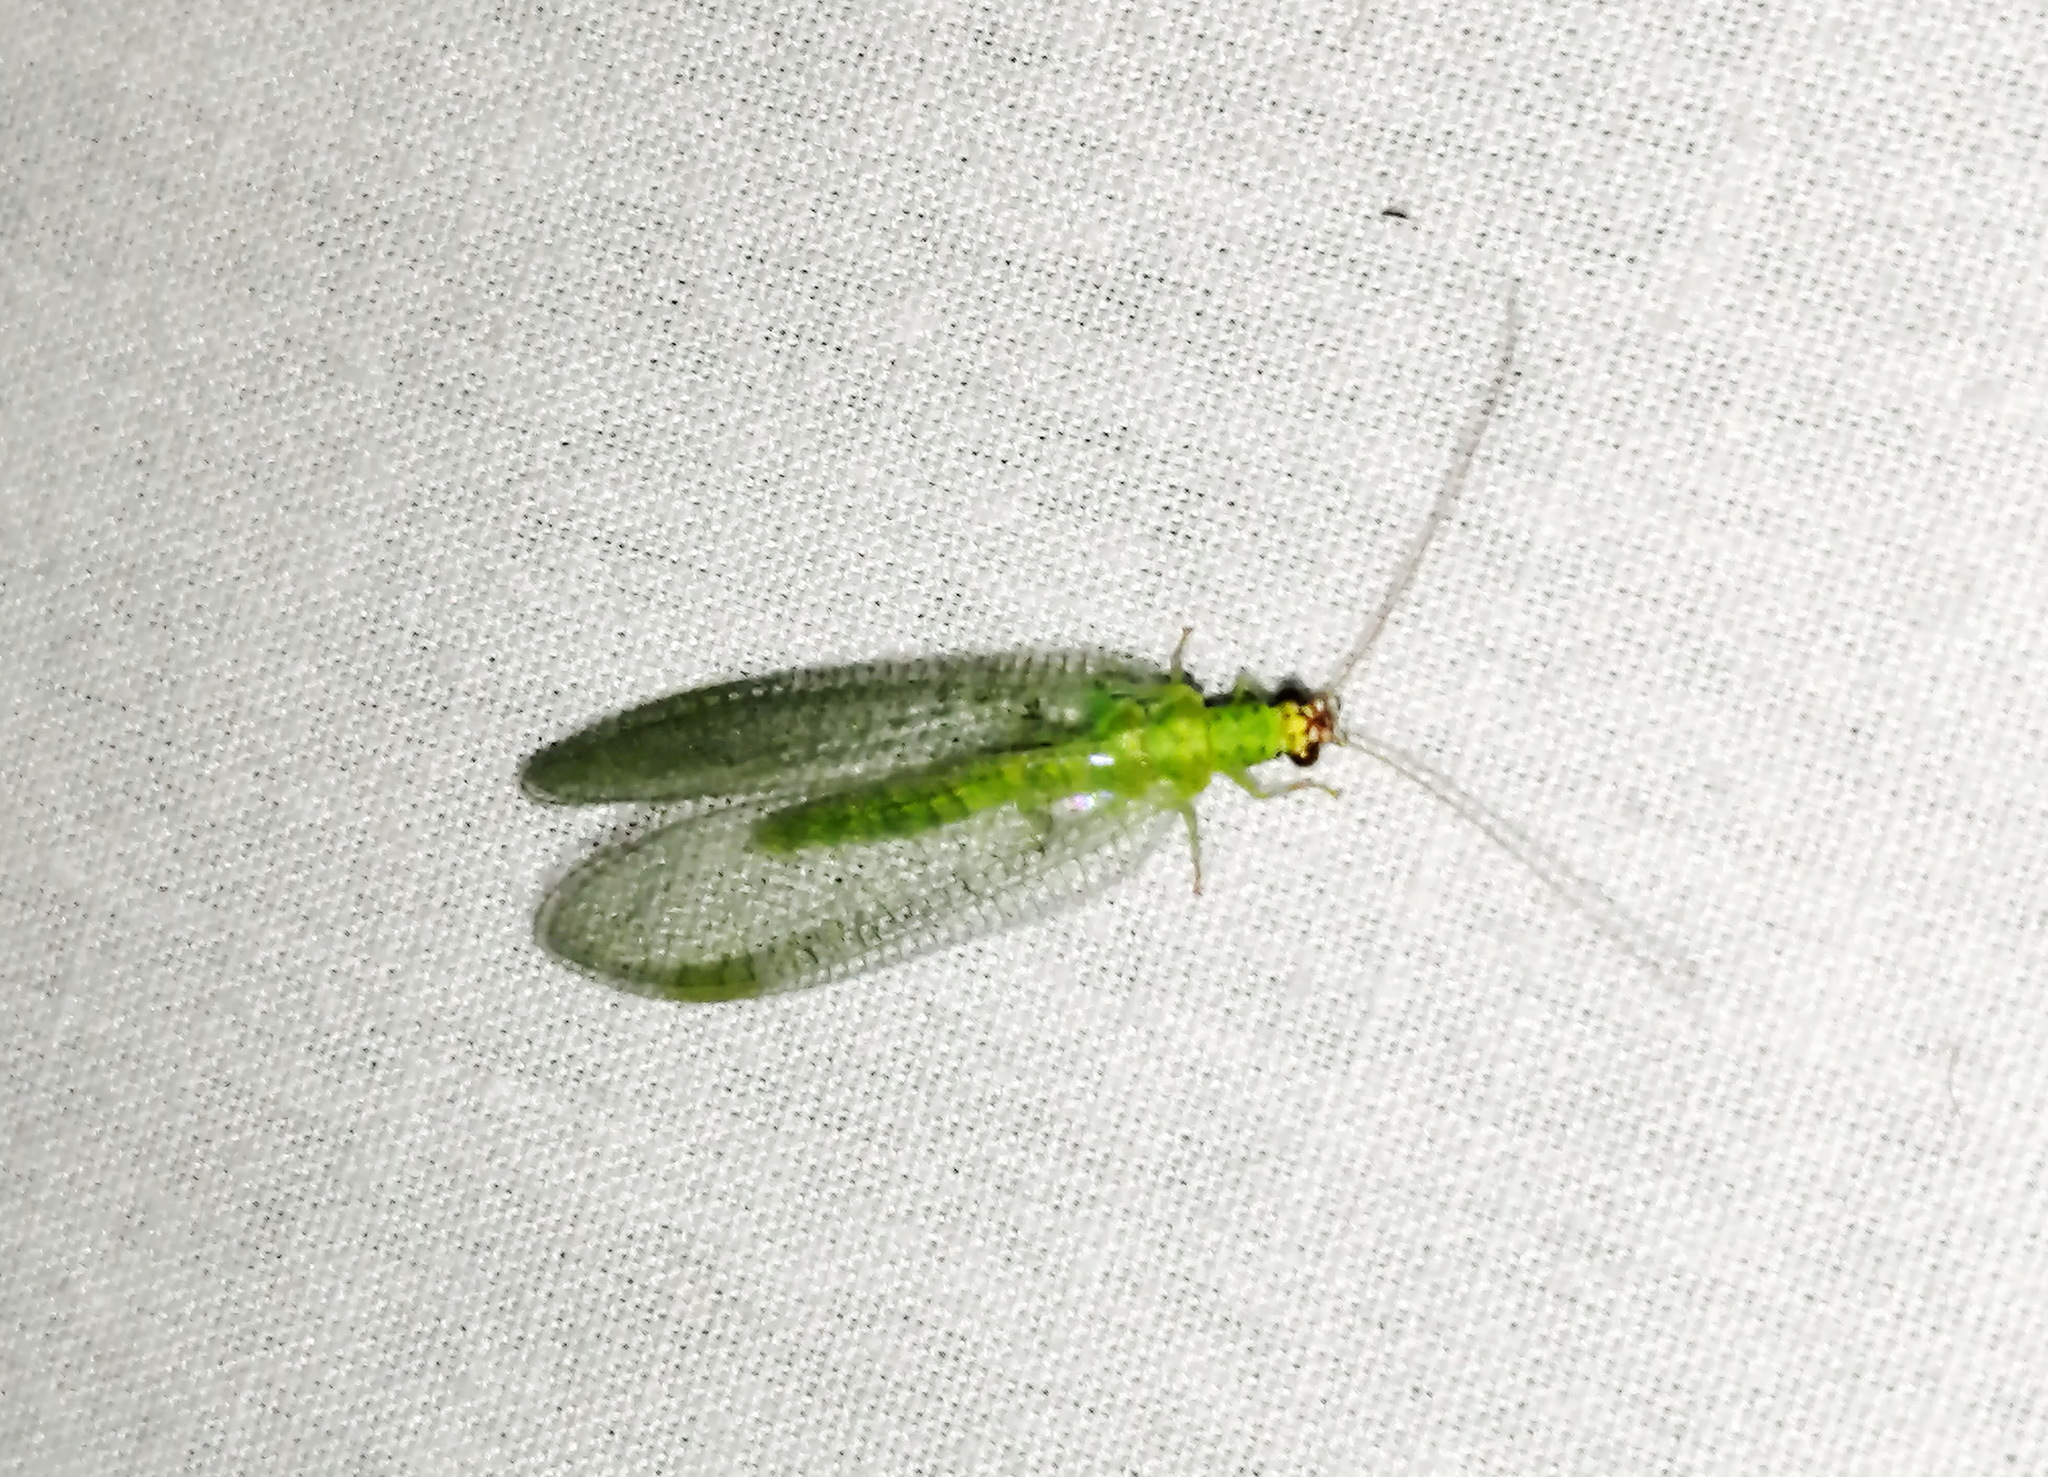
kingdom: Animalia
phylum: Arthropoda
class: Insecta
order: Neuroptera
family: Chrysopidae
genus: Chrysopa
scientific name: Chrysopa oculata
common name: Golden-eyed lacewing
